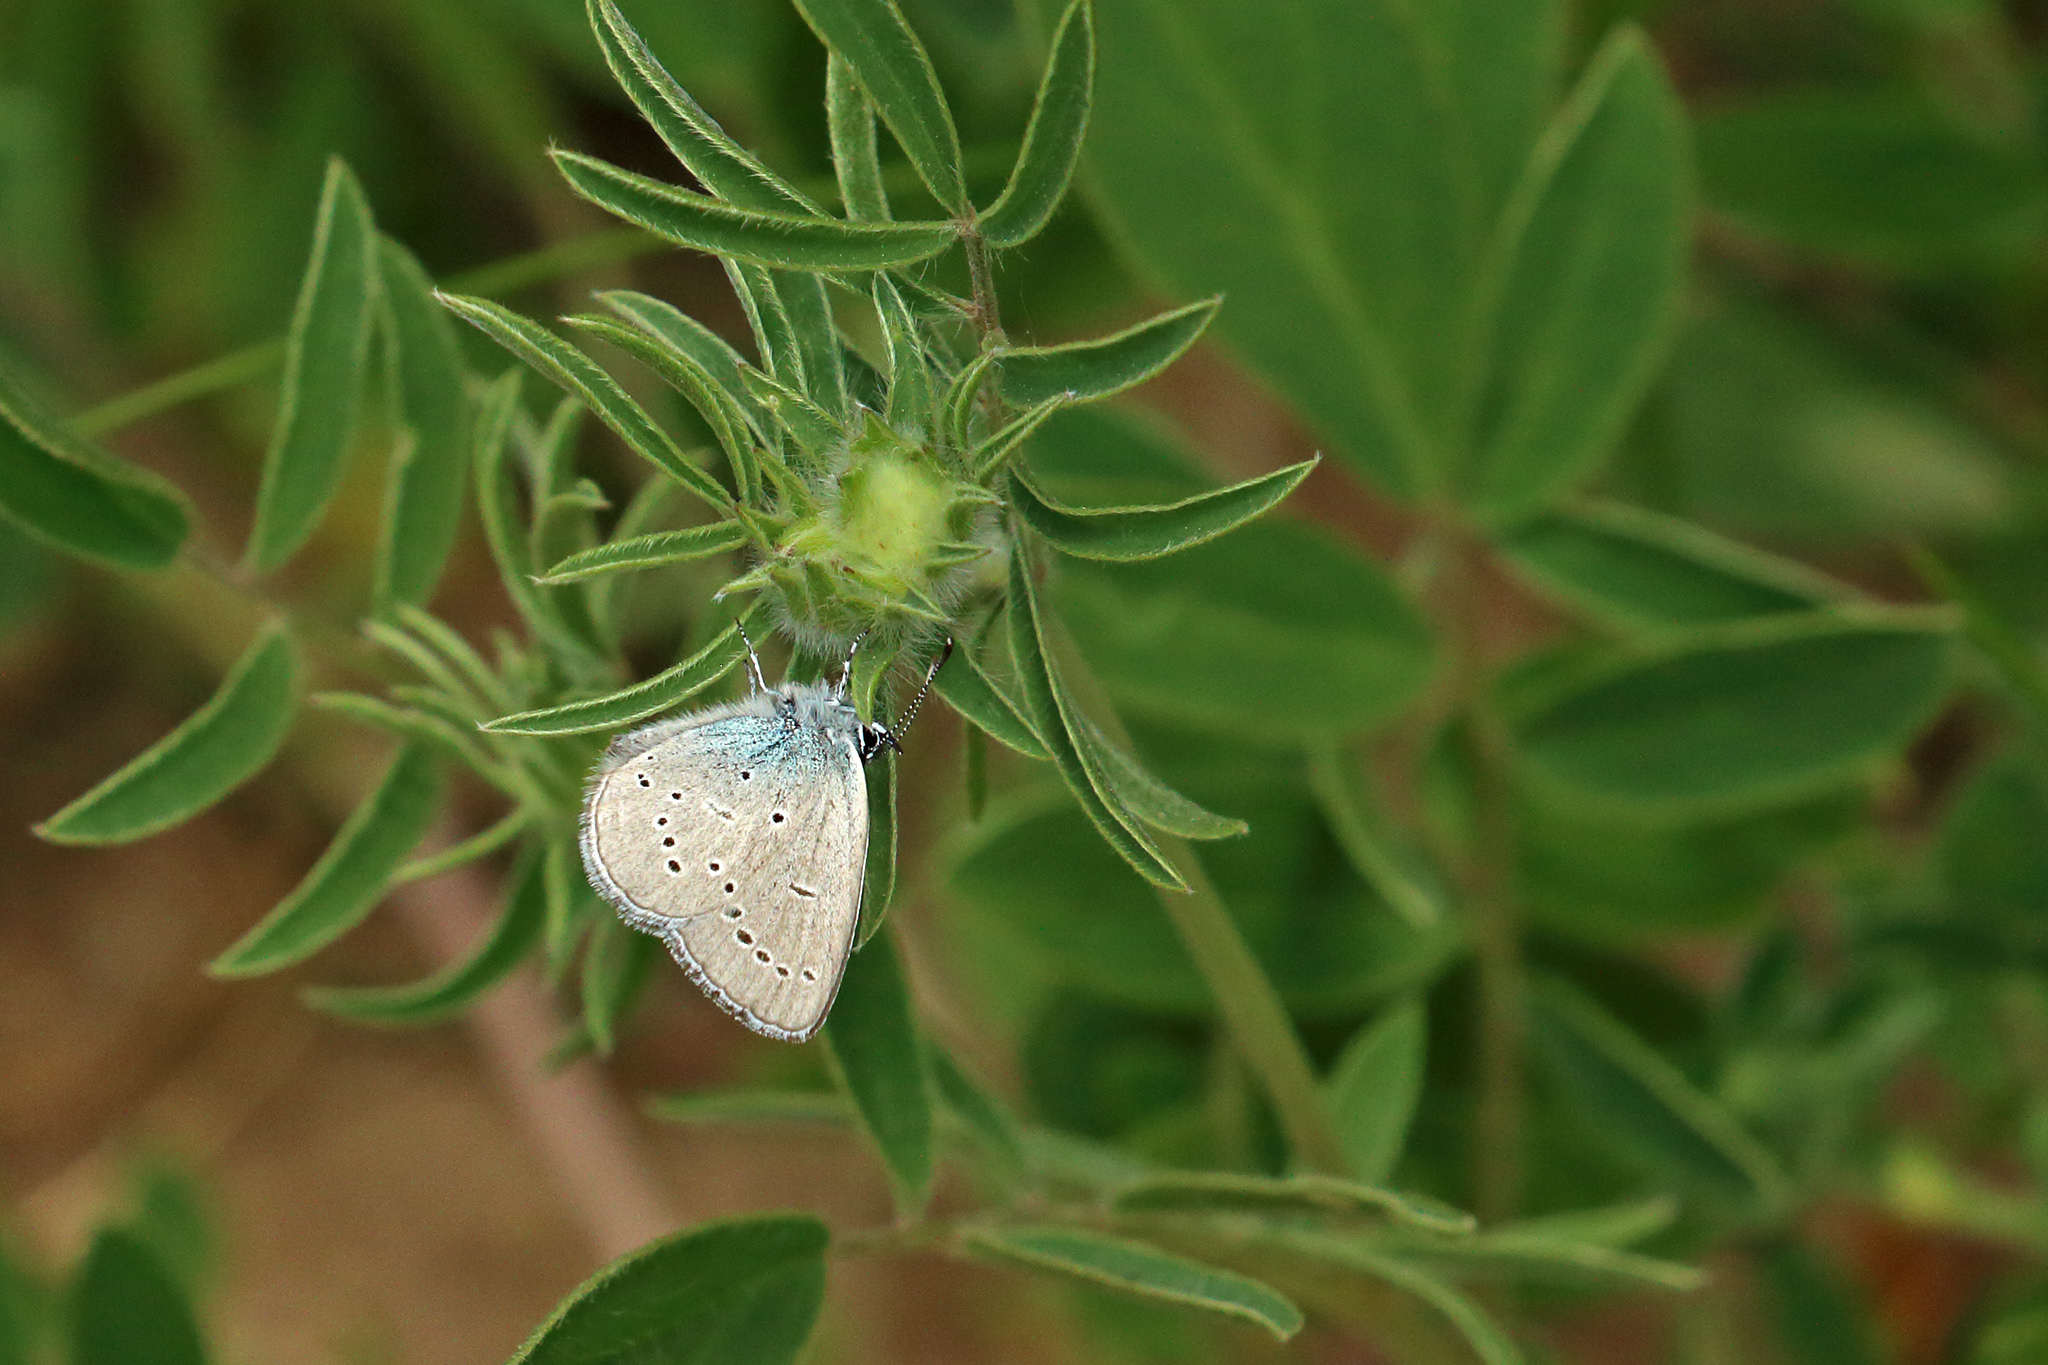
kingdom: Animalia
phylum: Arthropoda
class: Insecta
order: Lepidoptera
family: Lycaenidae
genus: Cupido
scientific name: Cupido minimus
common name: Small blue
